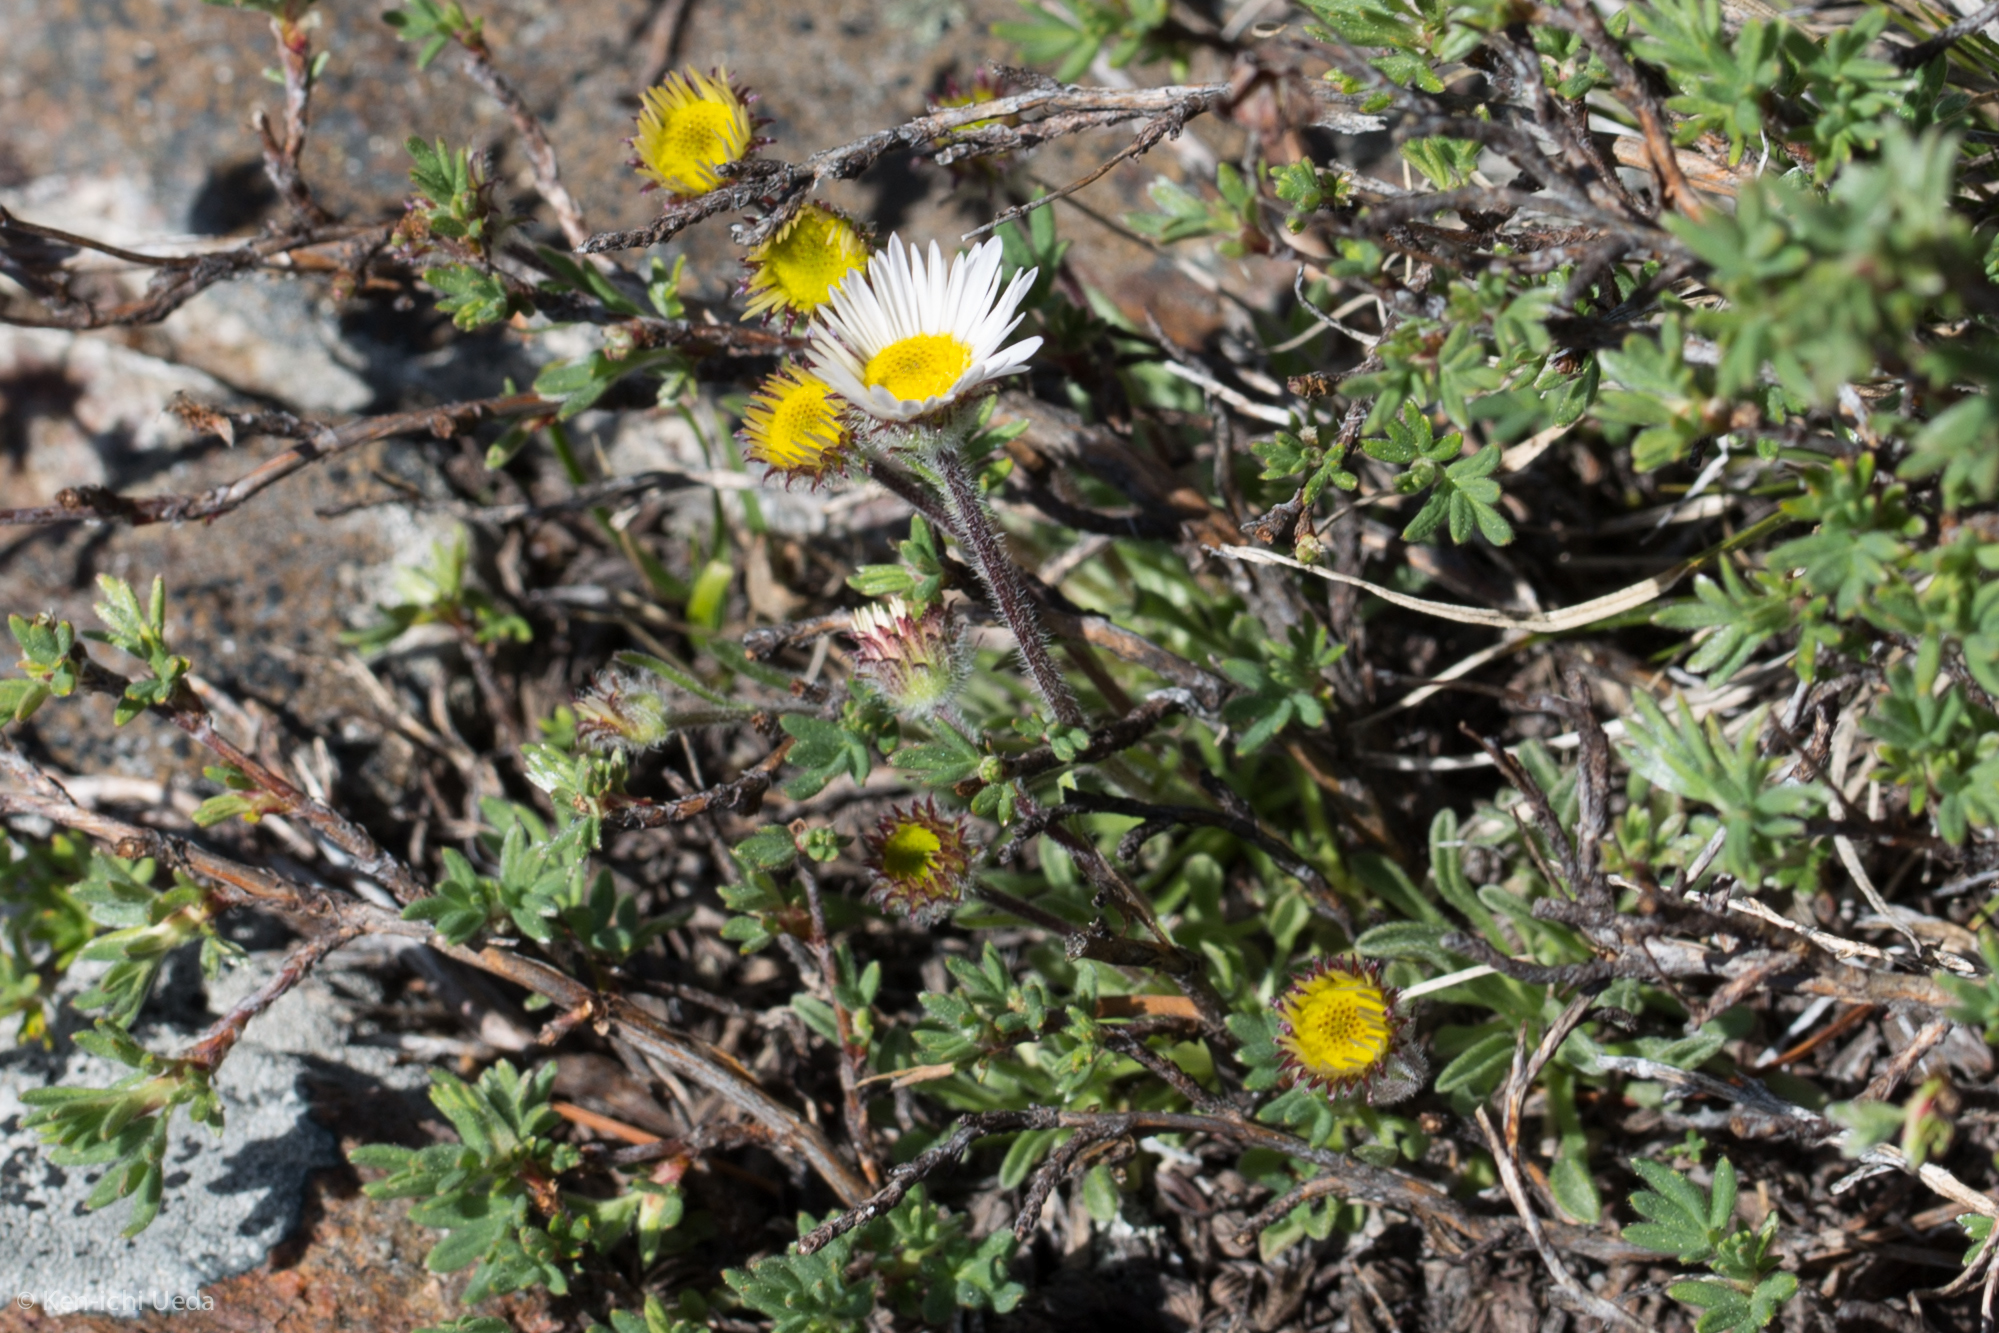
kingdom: Plantae
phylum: Tracheophyta
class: Magnoliopsida
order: Asterales
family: Asteraceae
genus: Erigeron
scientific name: Erigeron compositus
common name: Dwarf mountain fleabane
